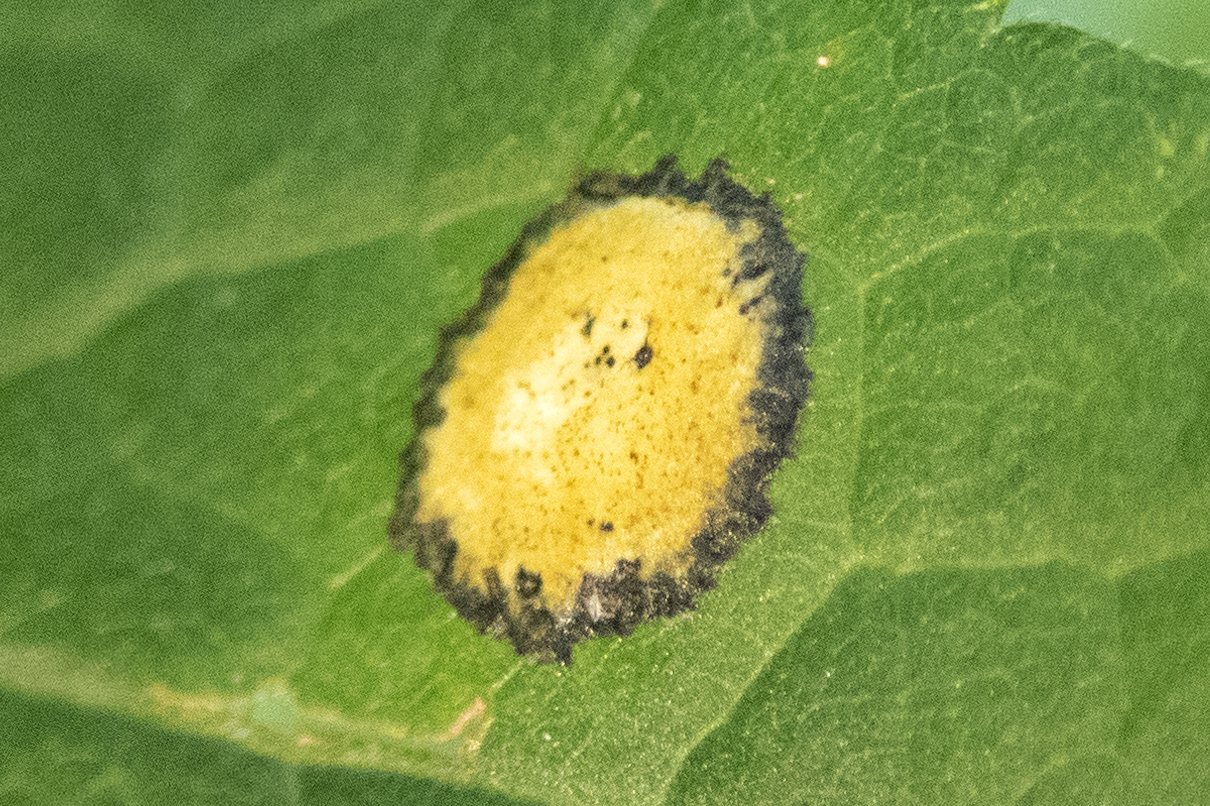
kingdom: Animalia
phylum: Arthropoda
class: Insecta
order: Diptera
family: Cecidomyiidae
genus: Asteromyia
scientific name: Asteromyia carbonifera
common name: Carbonifera goldenrod gall midge
